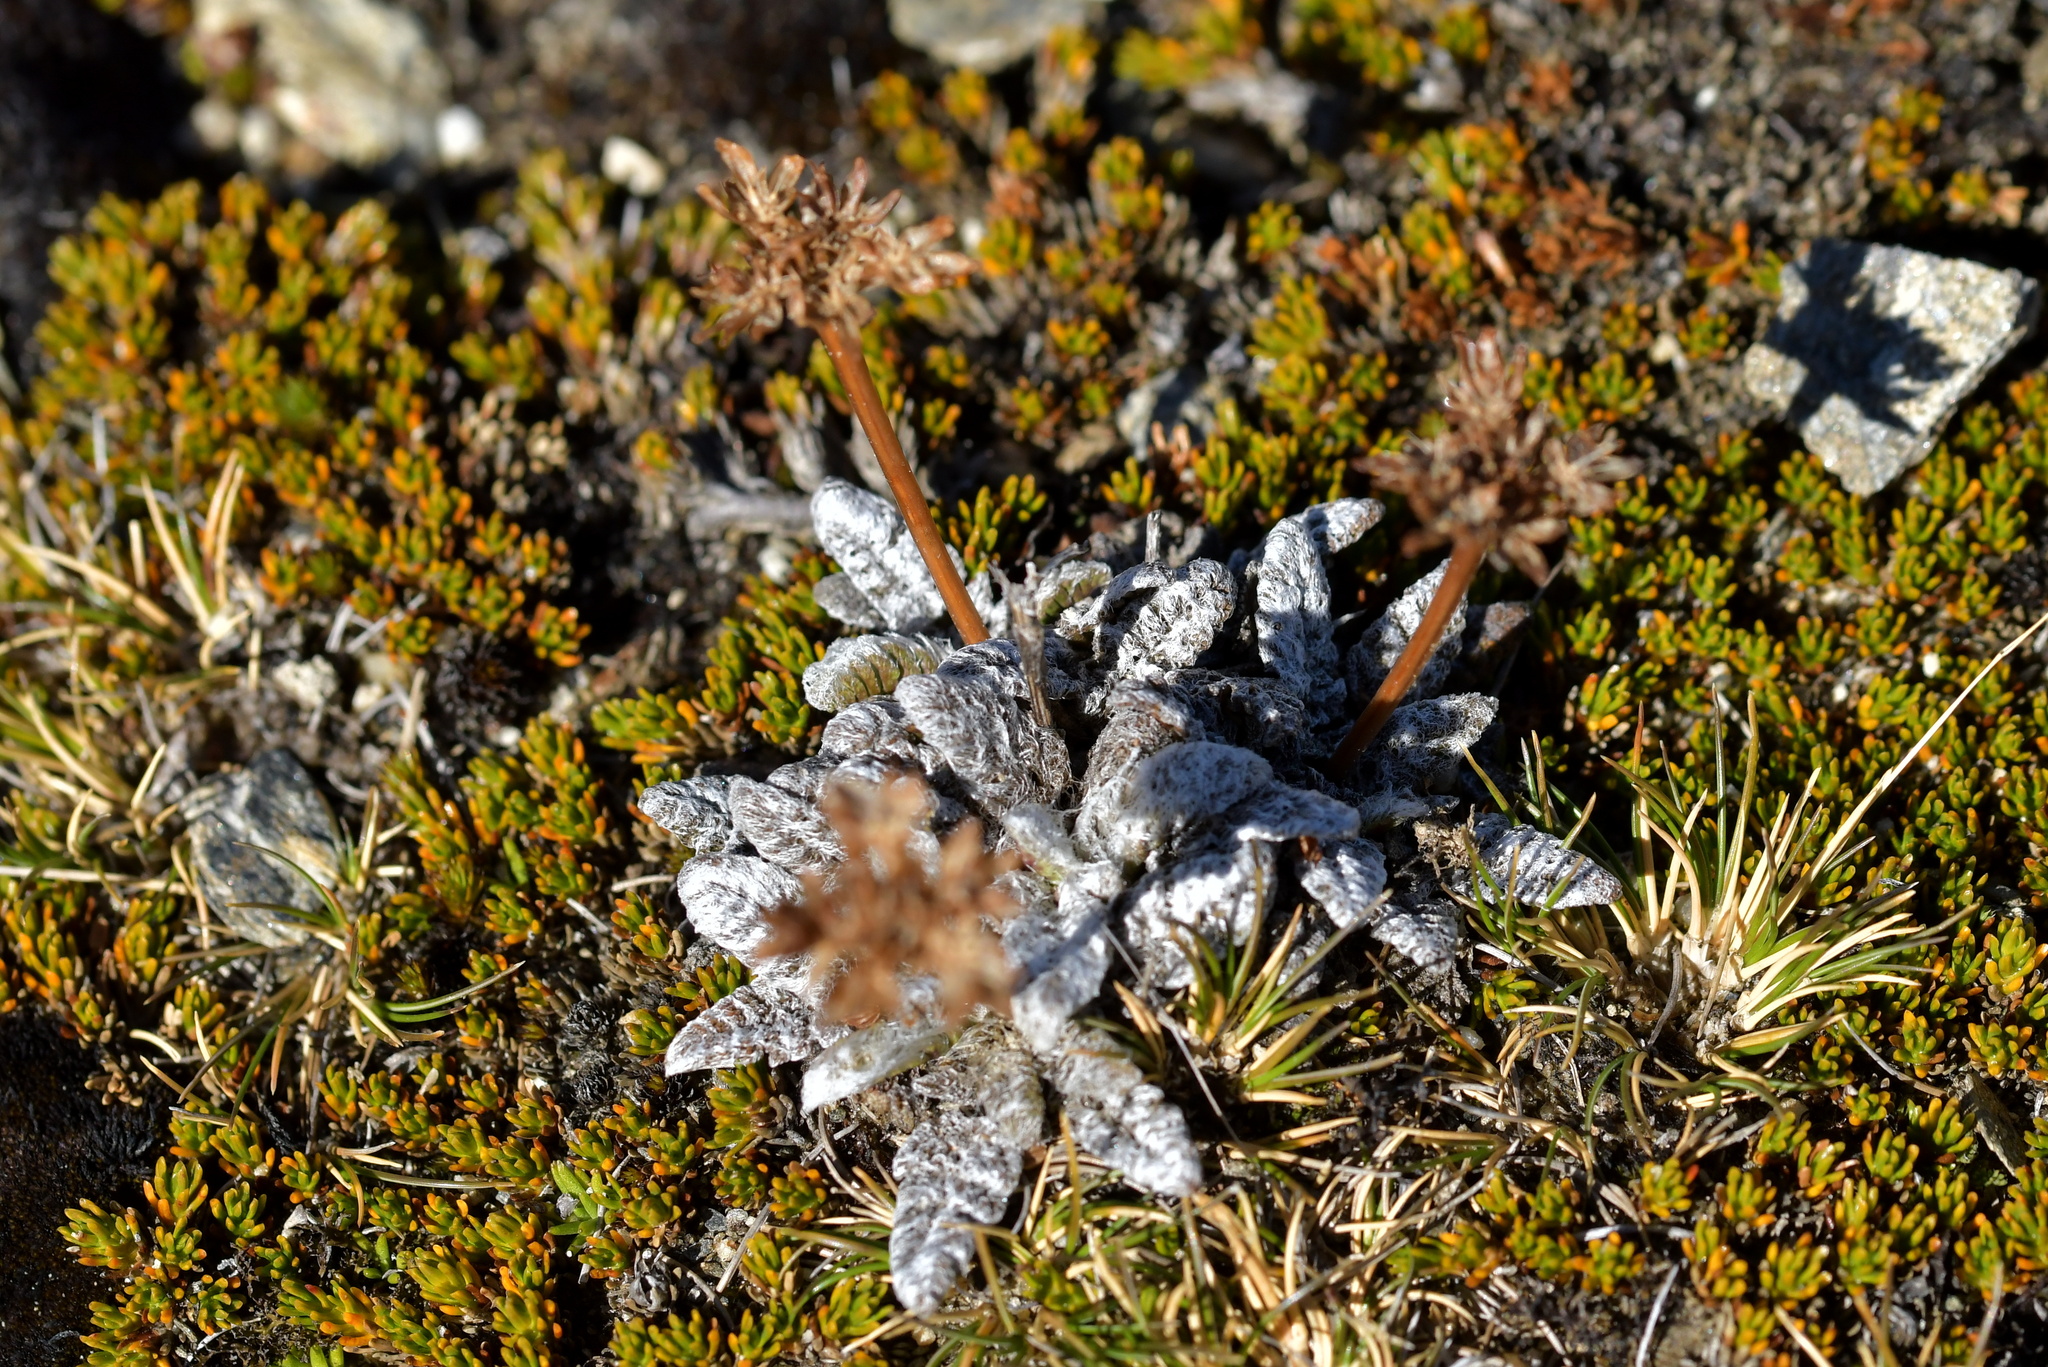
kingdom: Plantae
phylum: Tracheophyta
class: Magnoliopsida
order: Apiales
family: Apiaceae
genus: Anisotome
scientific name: Anisotome lanuginosa
